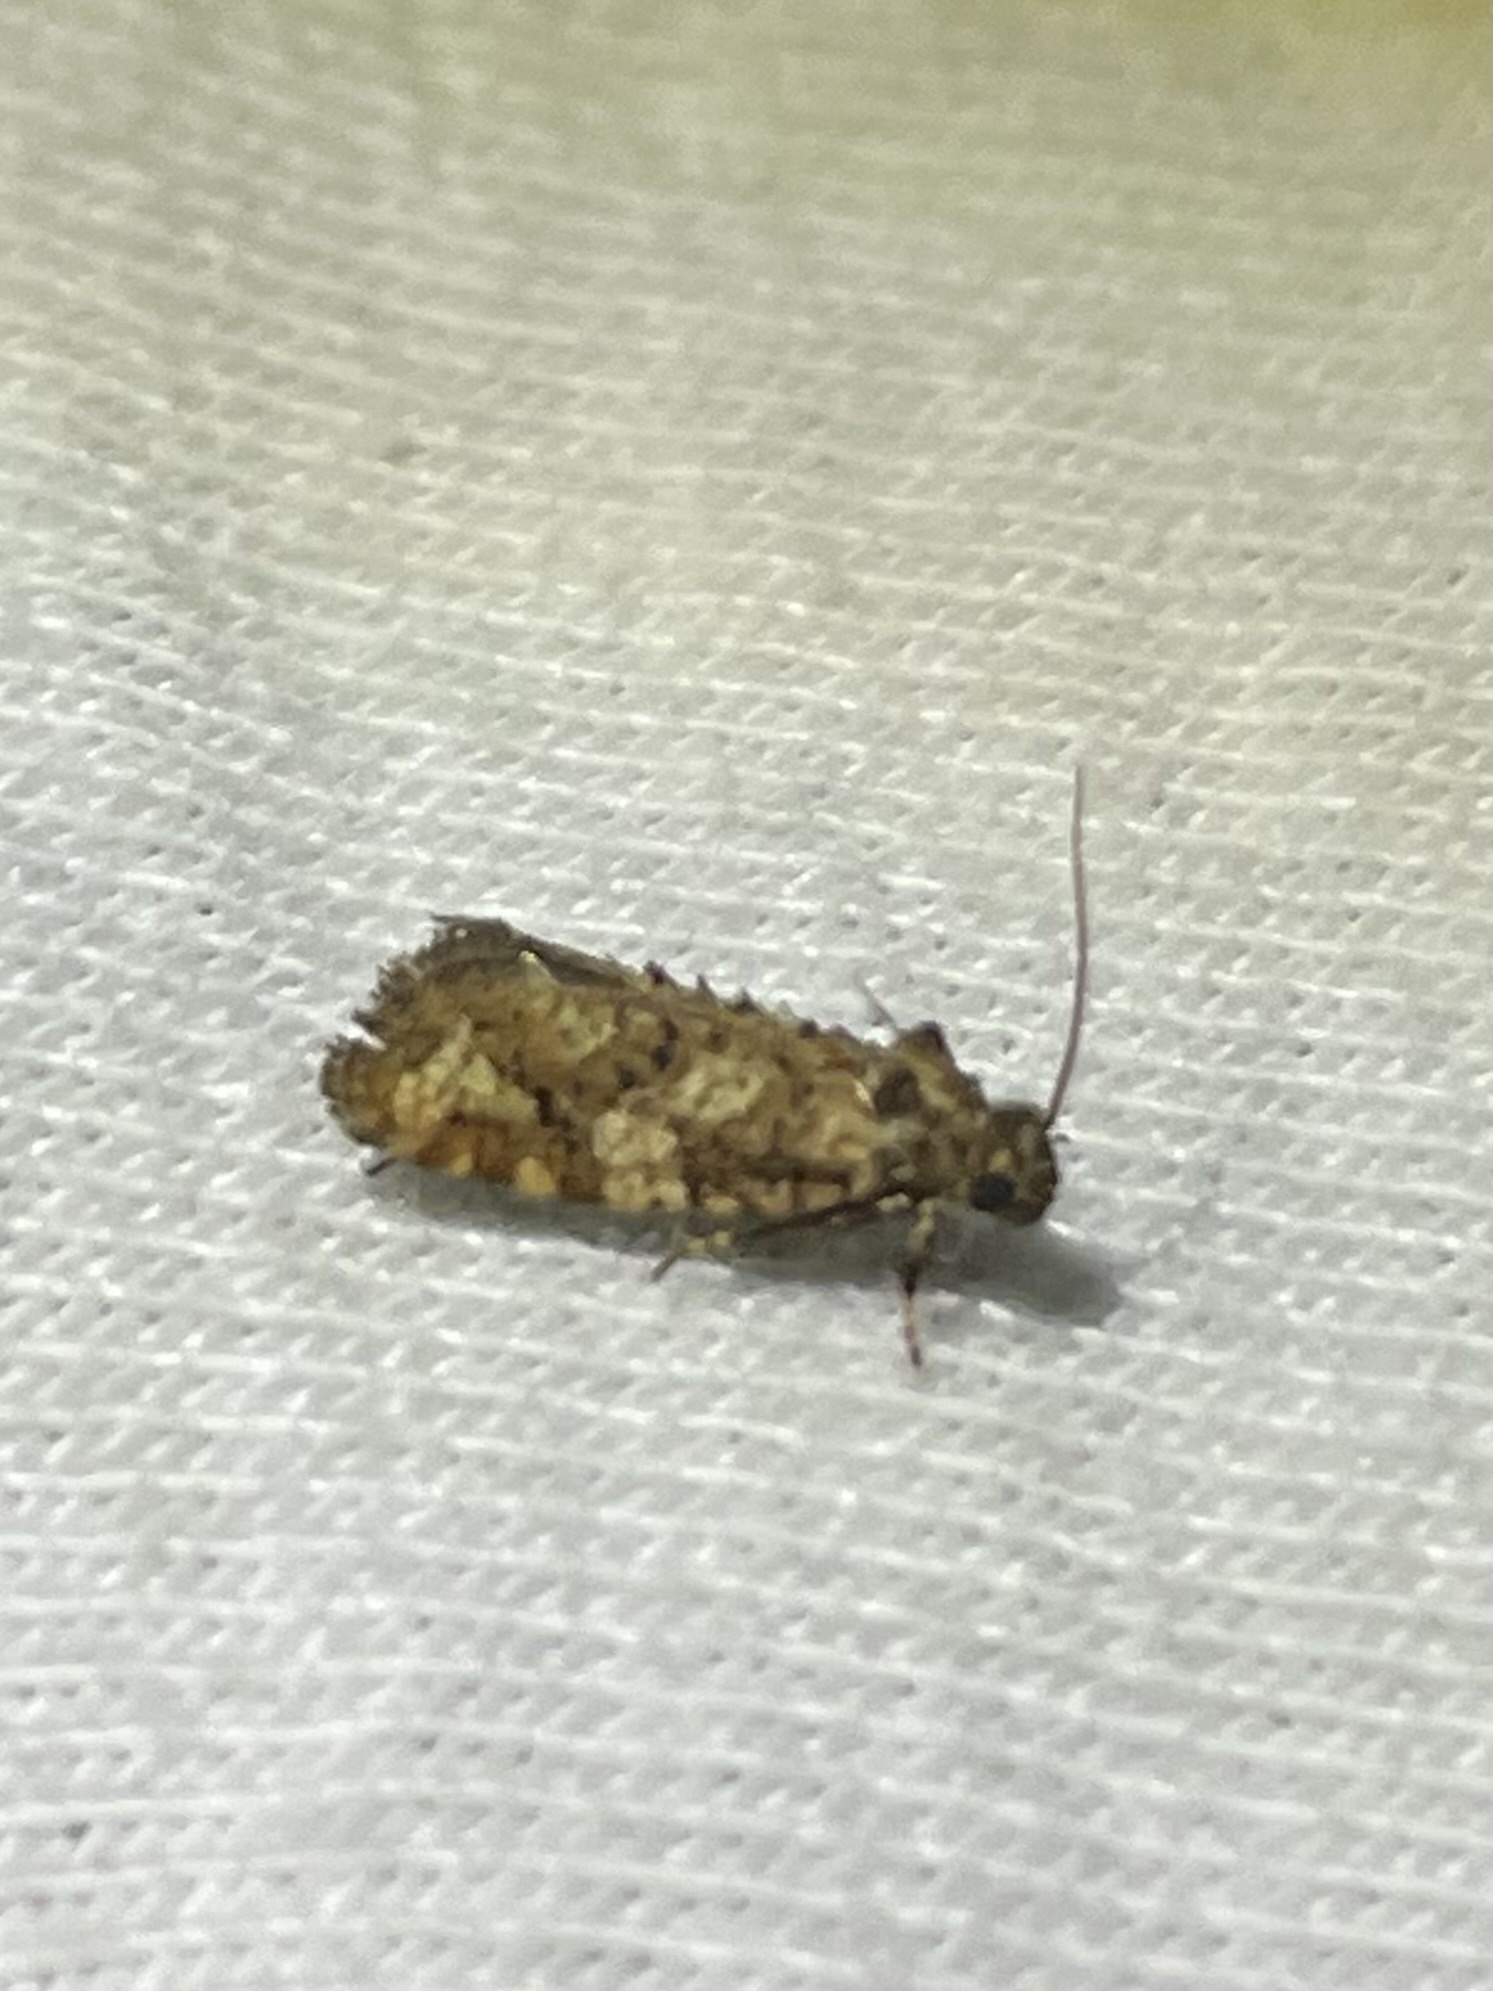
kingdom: Animalia
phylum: Arthropoda
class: Insecta
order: Lepidoptera
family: Tineidae
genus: Acrolophus
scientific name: Acrolophus cressoni
